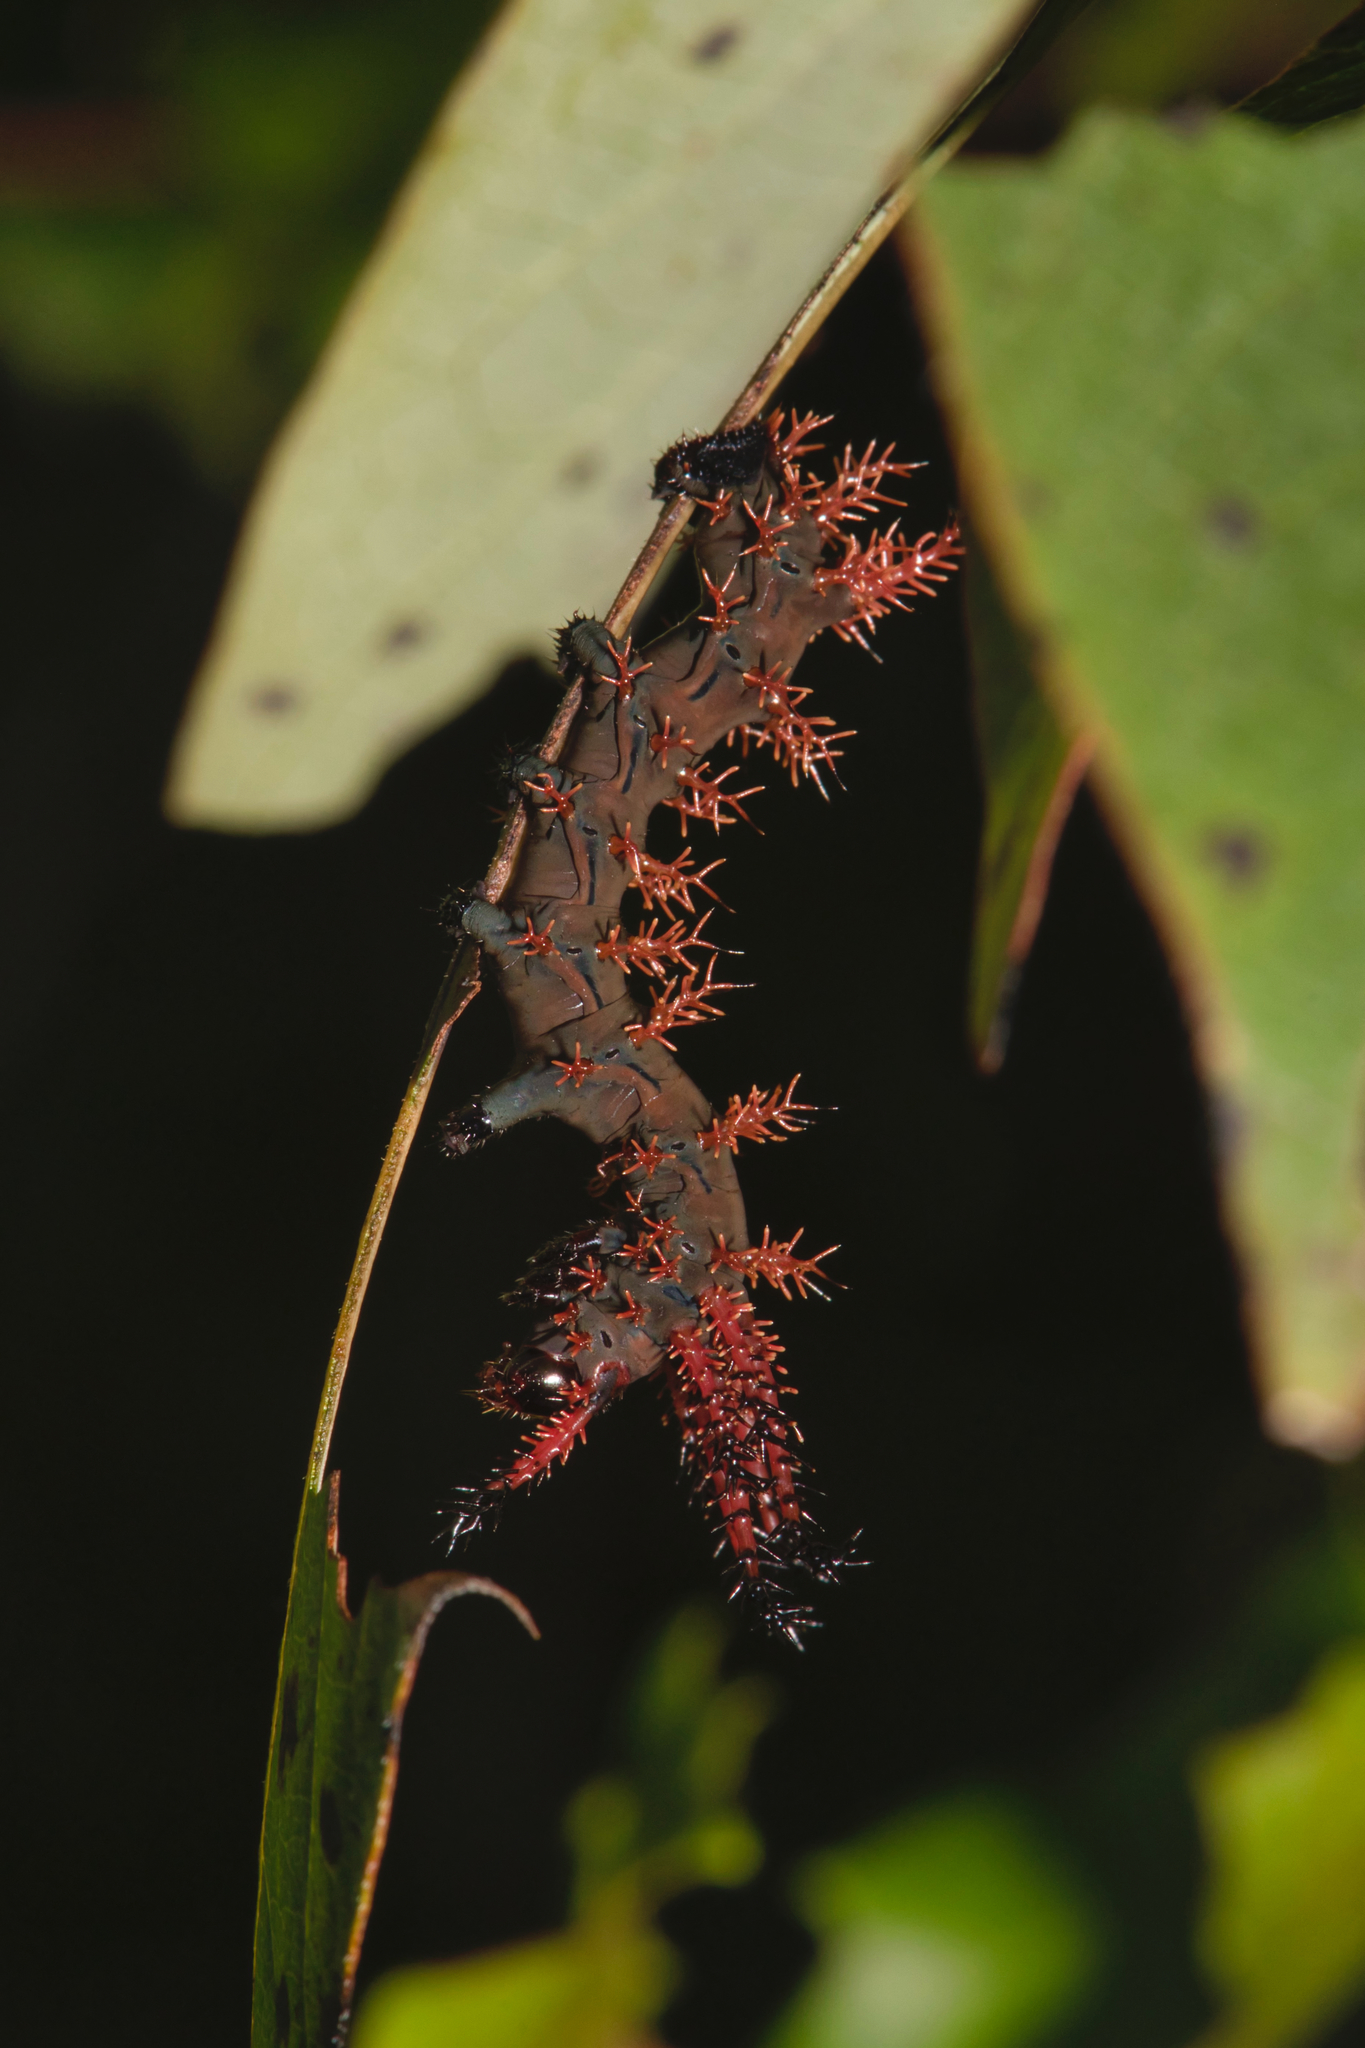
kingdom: Animalia
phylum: Arthropoda
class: Insecta
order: Lepidoptera
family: Saturniidae
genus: Citheronia
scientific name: Citheronia regalis
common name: Hickory horned devil
